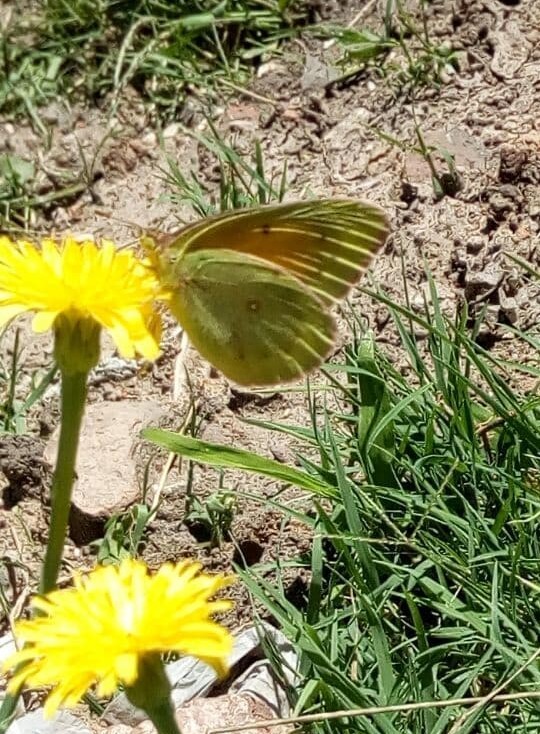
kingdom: Animalia
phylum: Arthropoda
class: Insecta
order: Lepidoptera
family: Pieridae
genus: Colias
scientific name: Colias lesbia
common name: Lesbia clouded yellow
